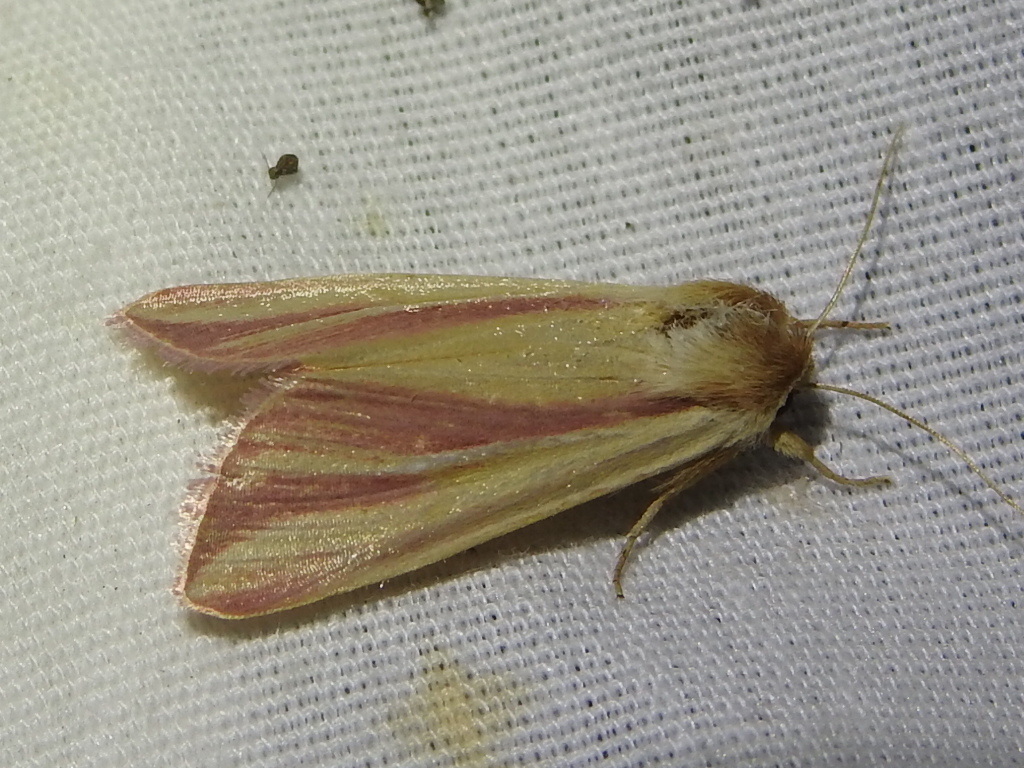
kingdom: Animalia
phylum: Arthropoda
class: Insecta
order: Lepidoptera
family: Noctuidae
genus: Dargida
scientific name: Dargida rubripennis
